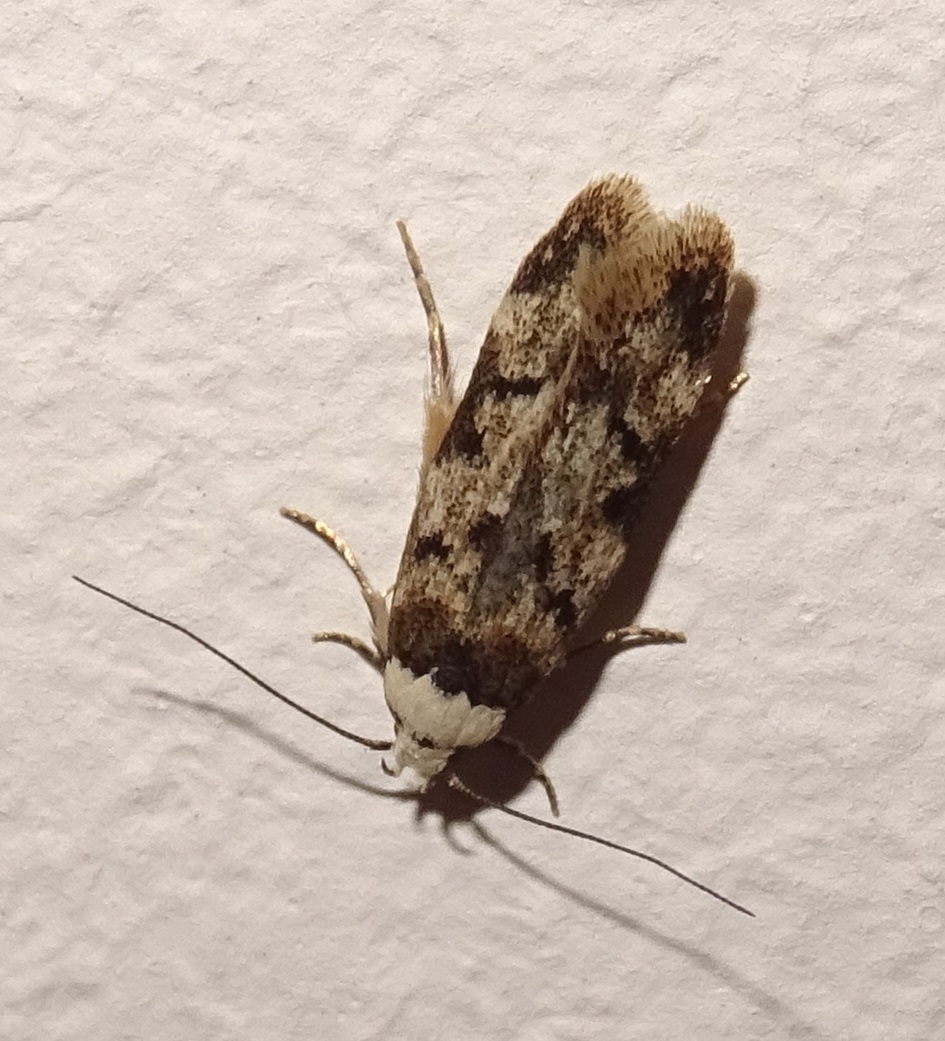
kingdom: Animalia
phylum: Arthropoda
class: Insecta
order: Lepidoptera
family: Oecophoridae
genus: Endrosis
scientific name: Endrosis sarcitrella
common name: White-shouldered house moth
